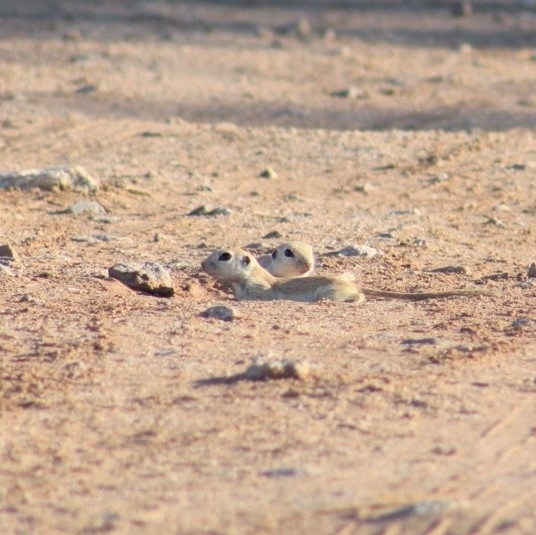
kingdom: Animalia
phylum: Chordata
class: Mammalia
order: Rodentia
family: Sciuridae
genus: Xerospermophilus
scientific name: Xerospermophilus tereticaudus
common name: Round-tailed ground squirrel
